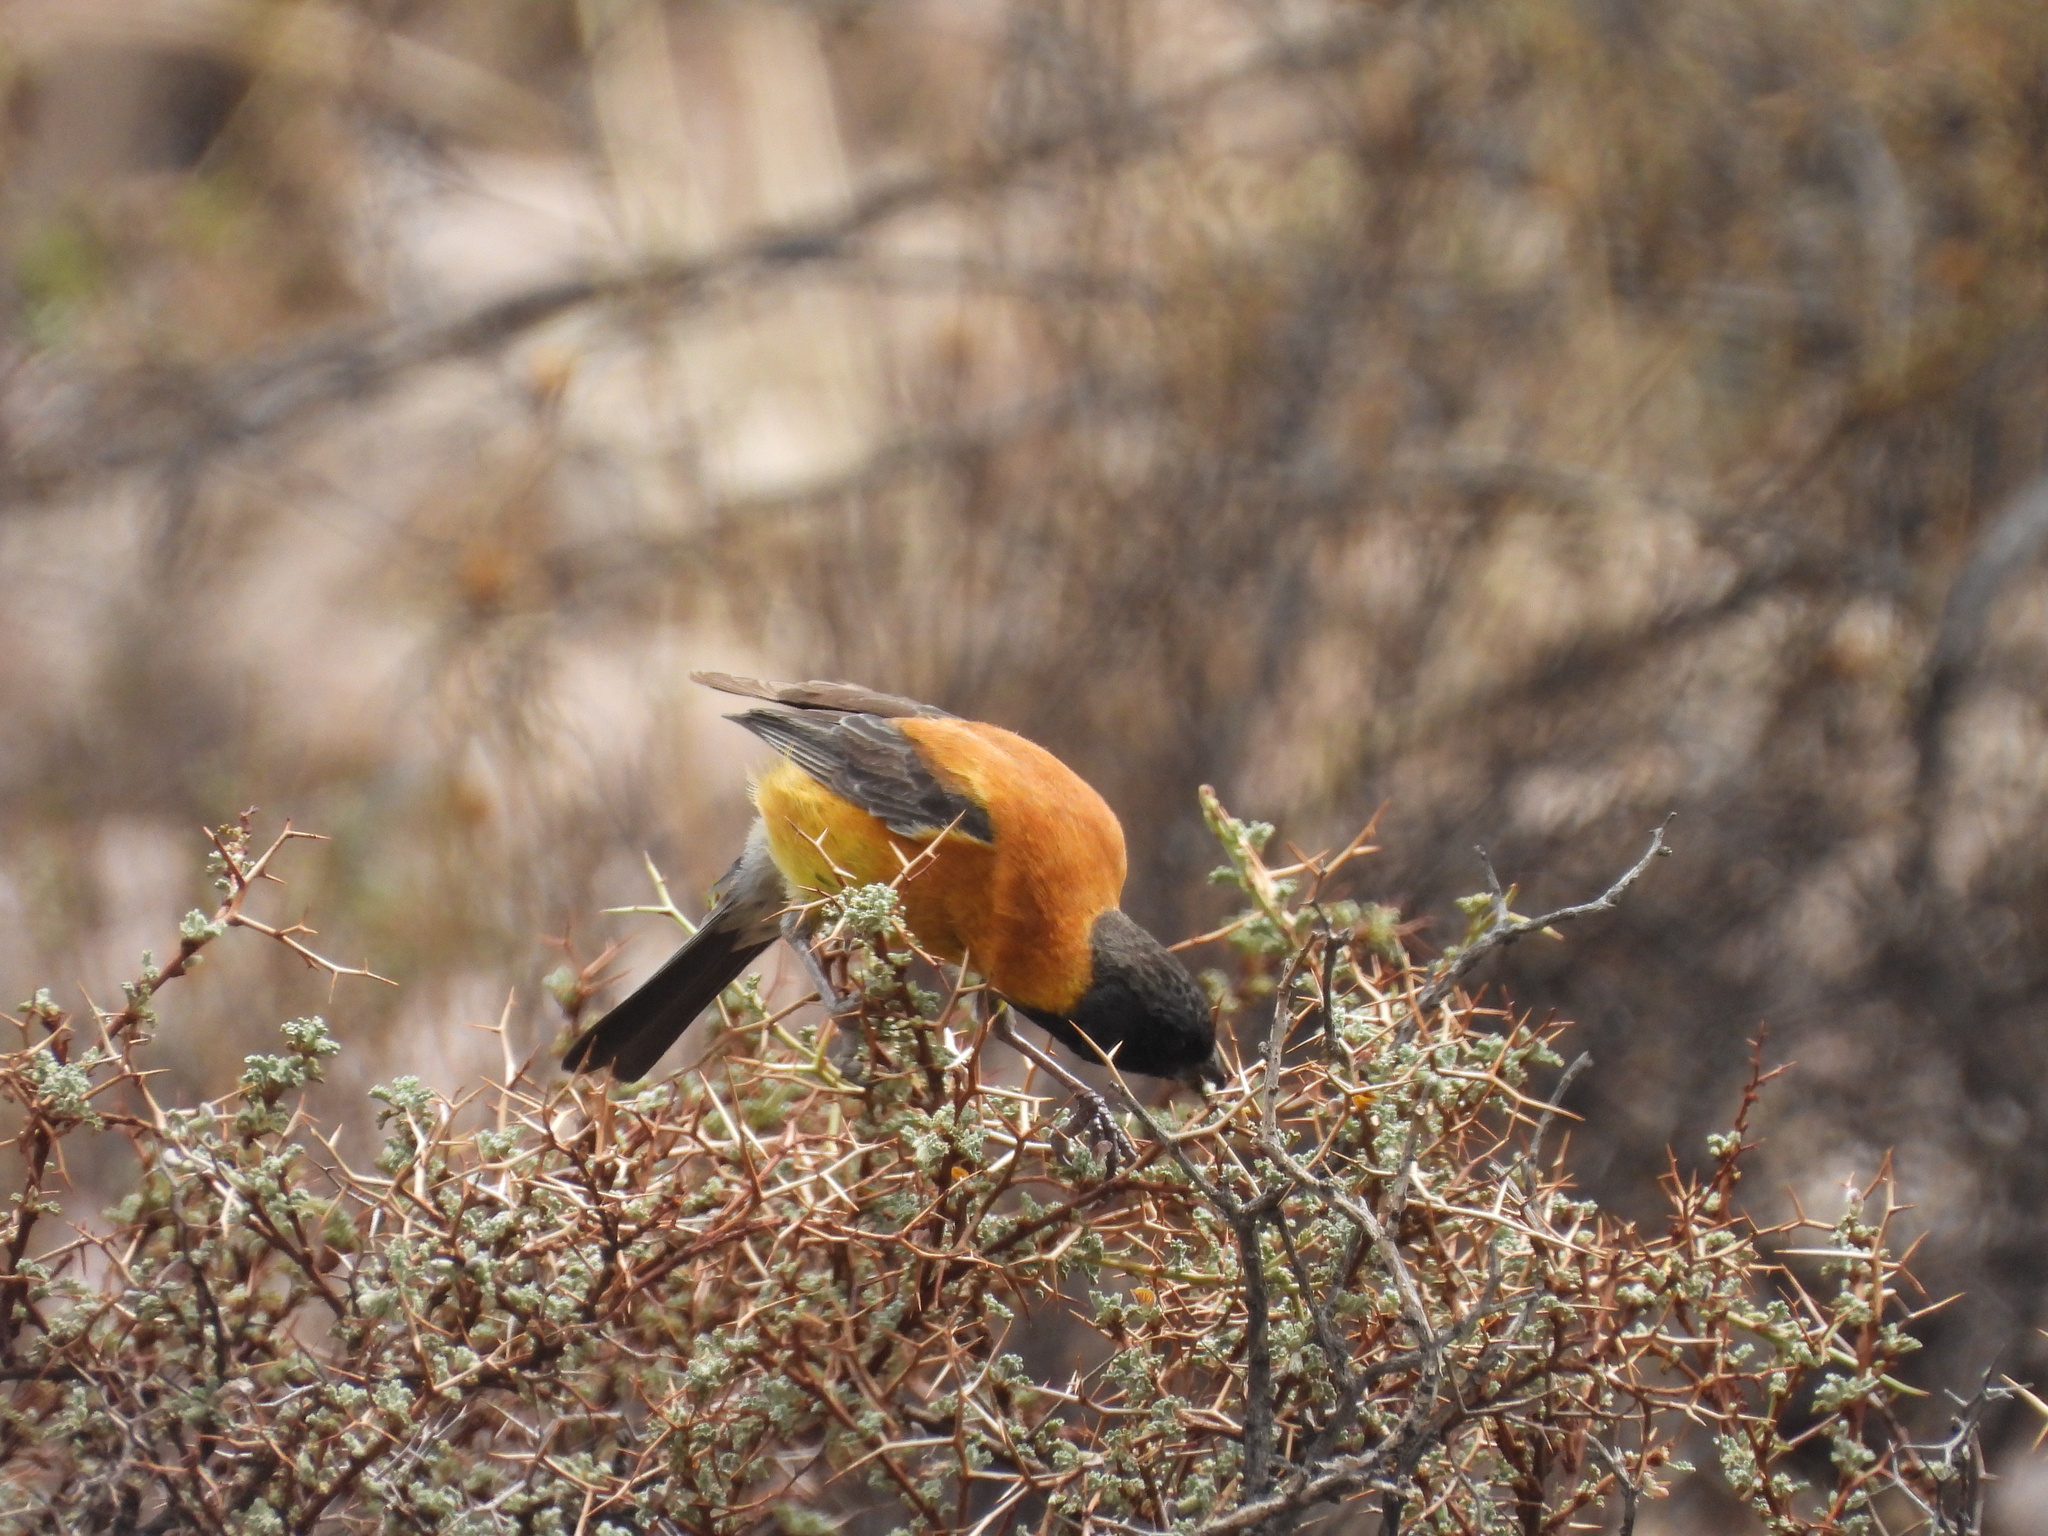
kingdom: Animalia
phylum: Chordata
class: Aves
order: Passeriformes
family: Thraupidae
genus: Phrygilus
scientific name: Phrygilus atriceps
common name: Black-hooded sierra finch
